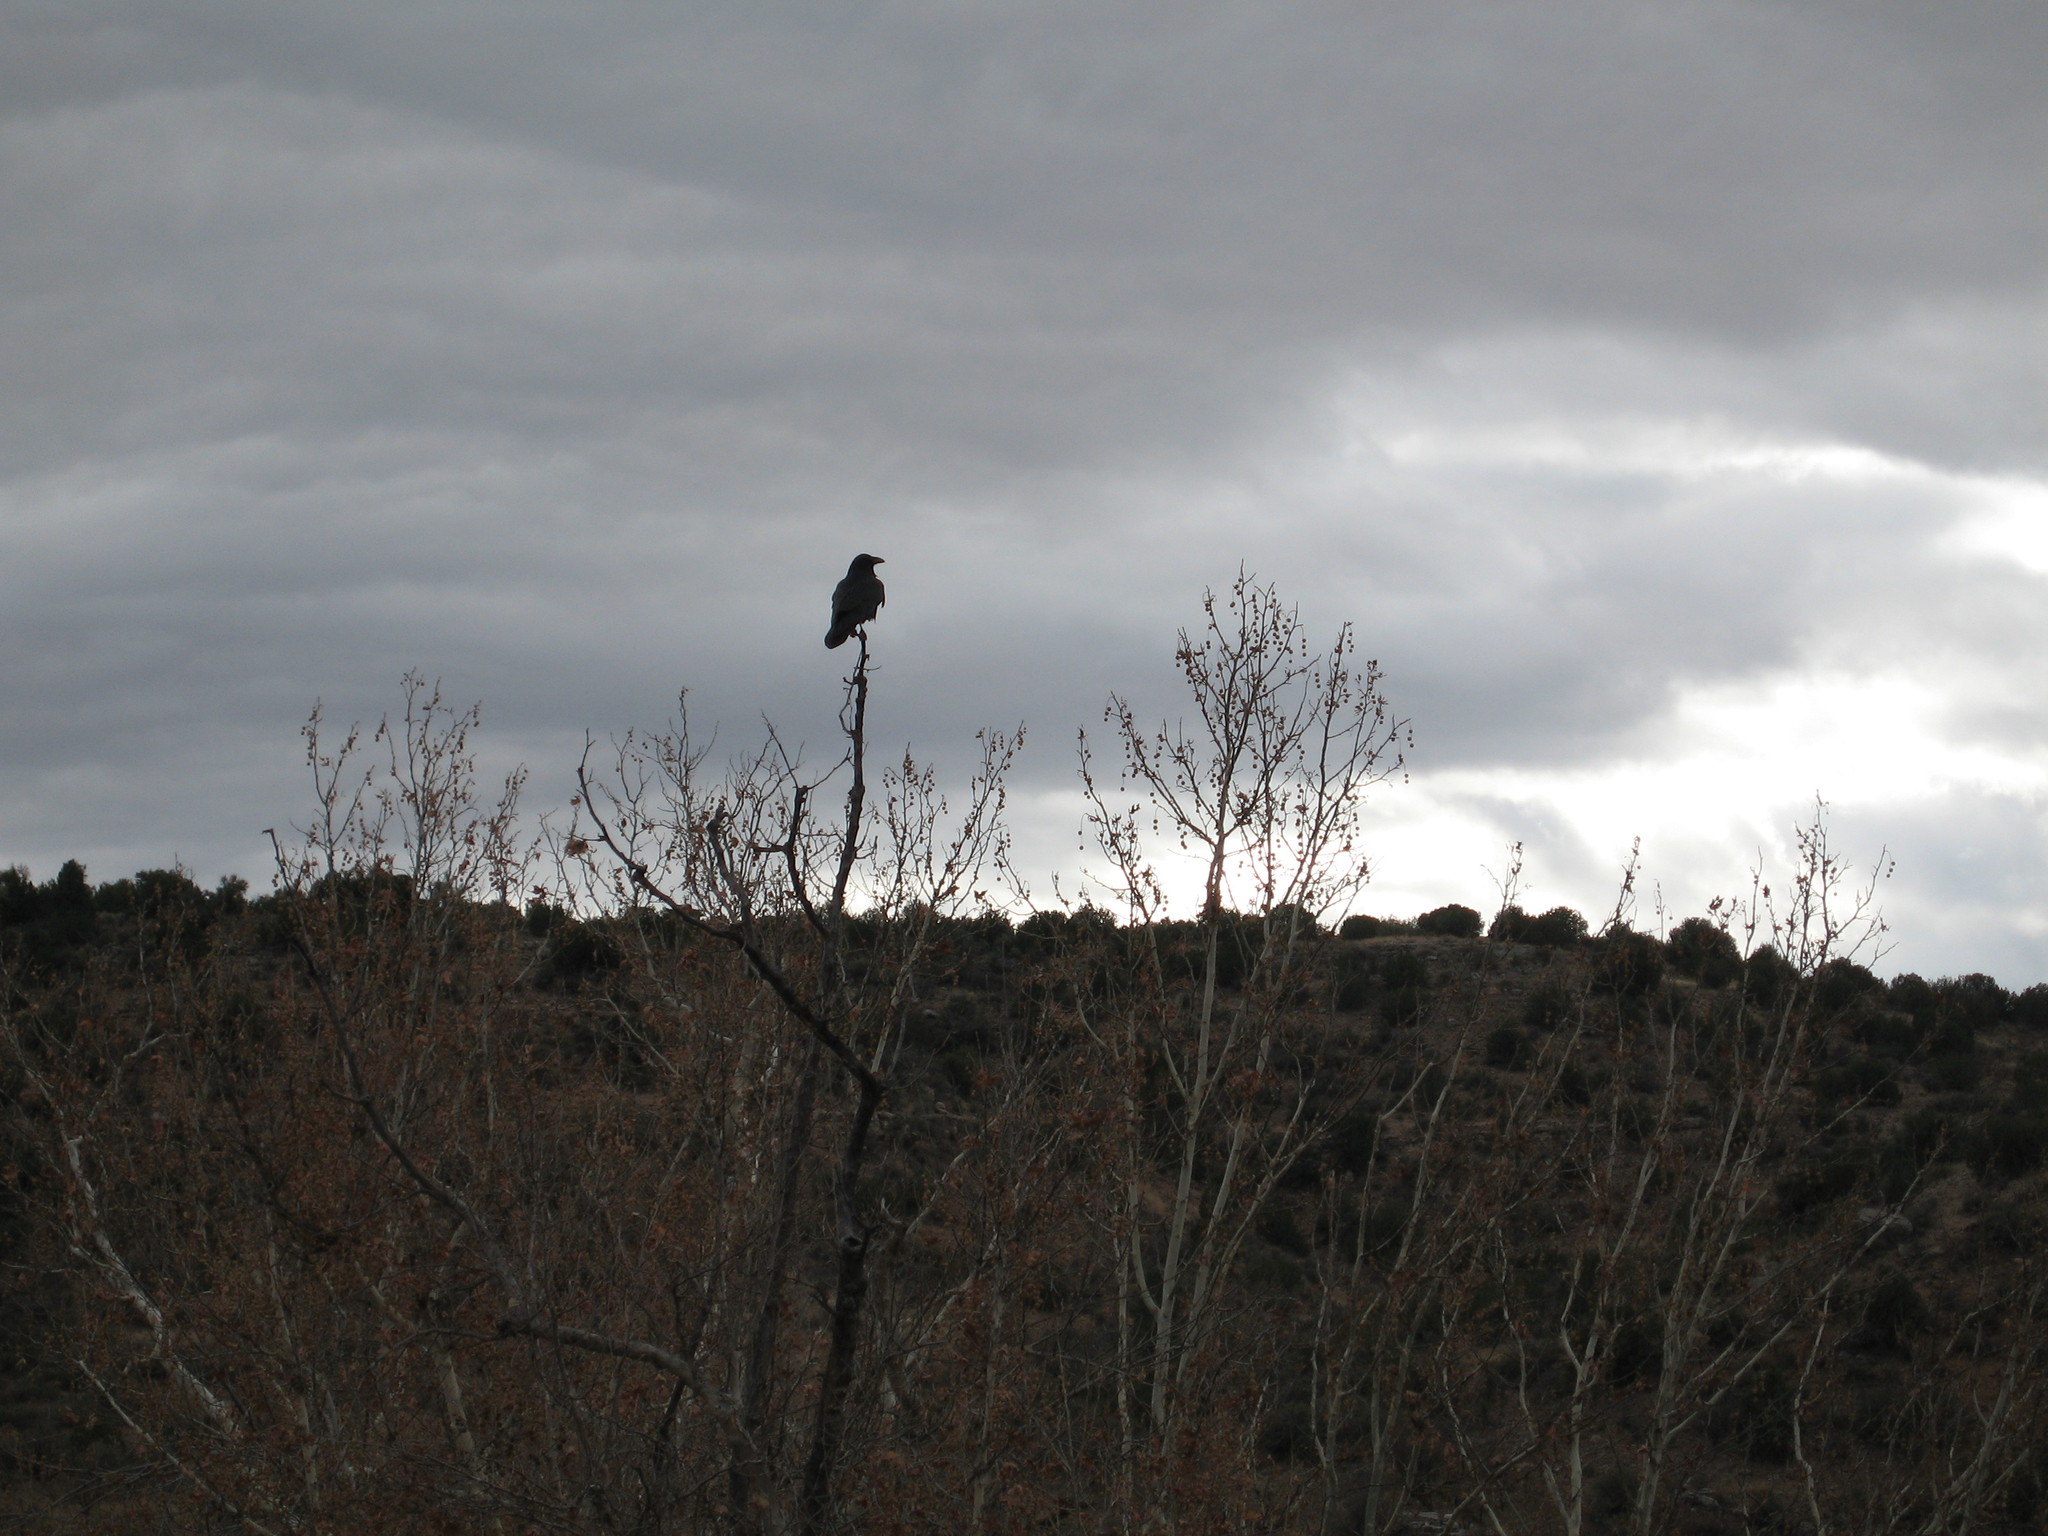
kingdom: Animalia
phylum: Chordata
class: Aves
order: Passeriformes
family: Corvidae
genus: Corvus
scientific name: Corvus corax
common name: Common raven
